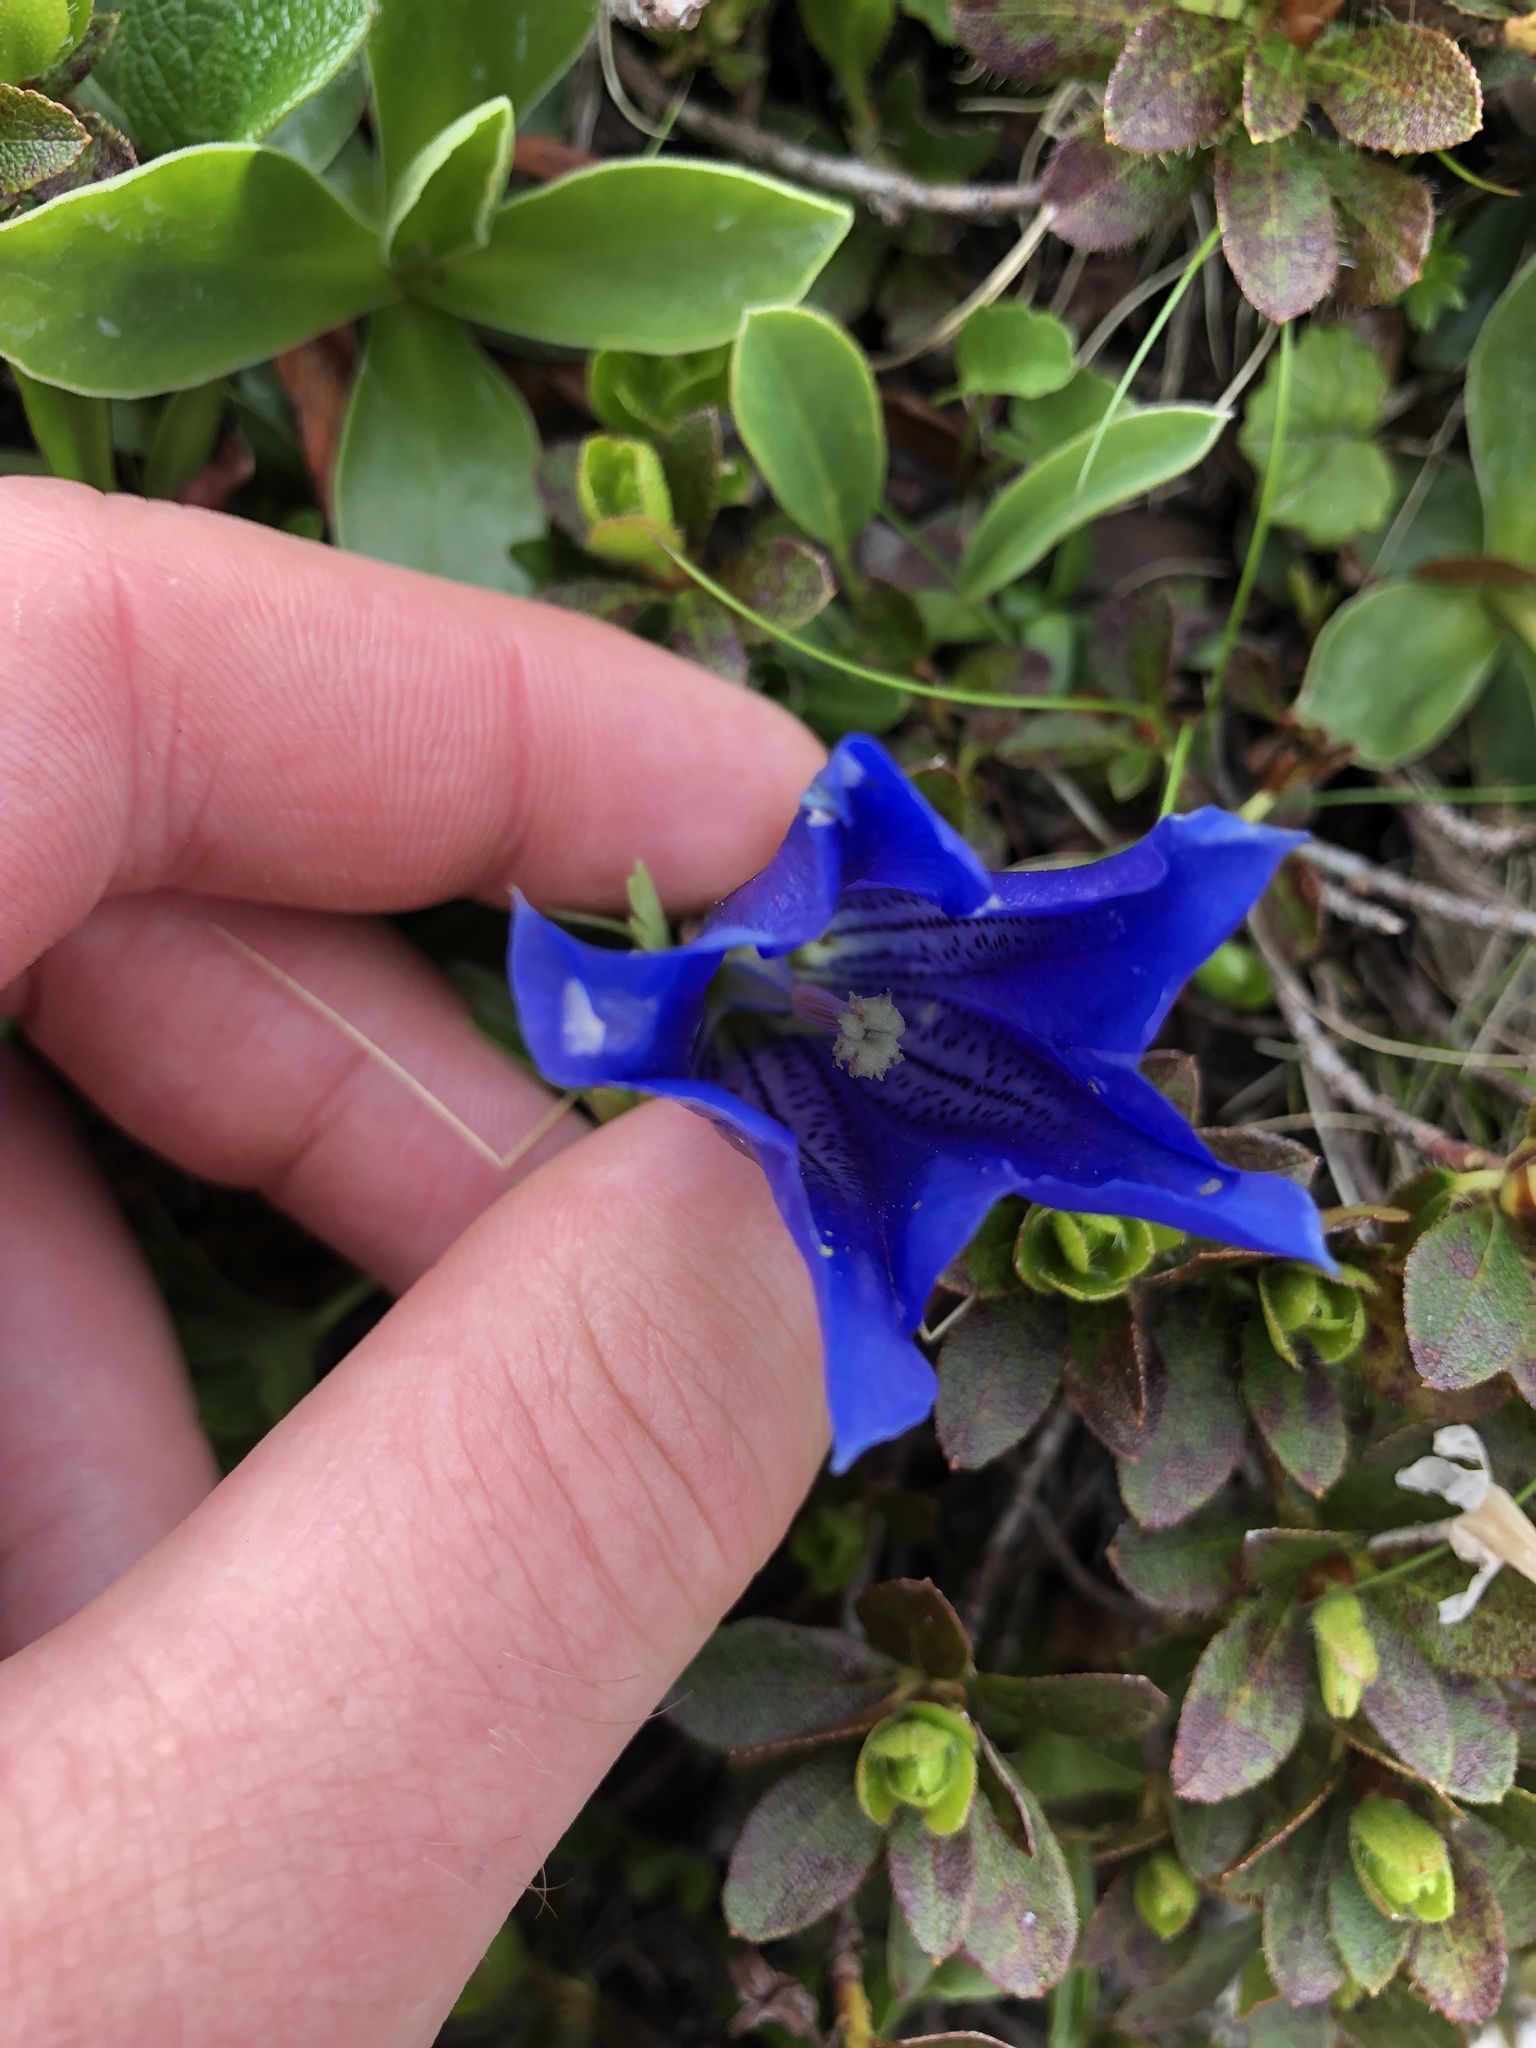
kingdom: Plantae
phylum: Tracheophyta
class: Magnoliopsida
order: Gentianales
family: Gentianaceae
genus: Gentiana
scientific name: Gentiana clusii
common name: Trumpet gentian
